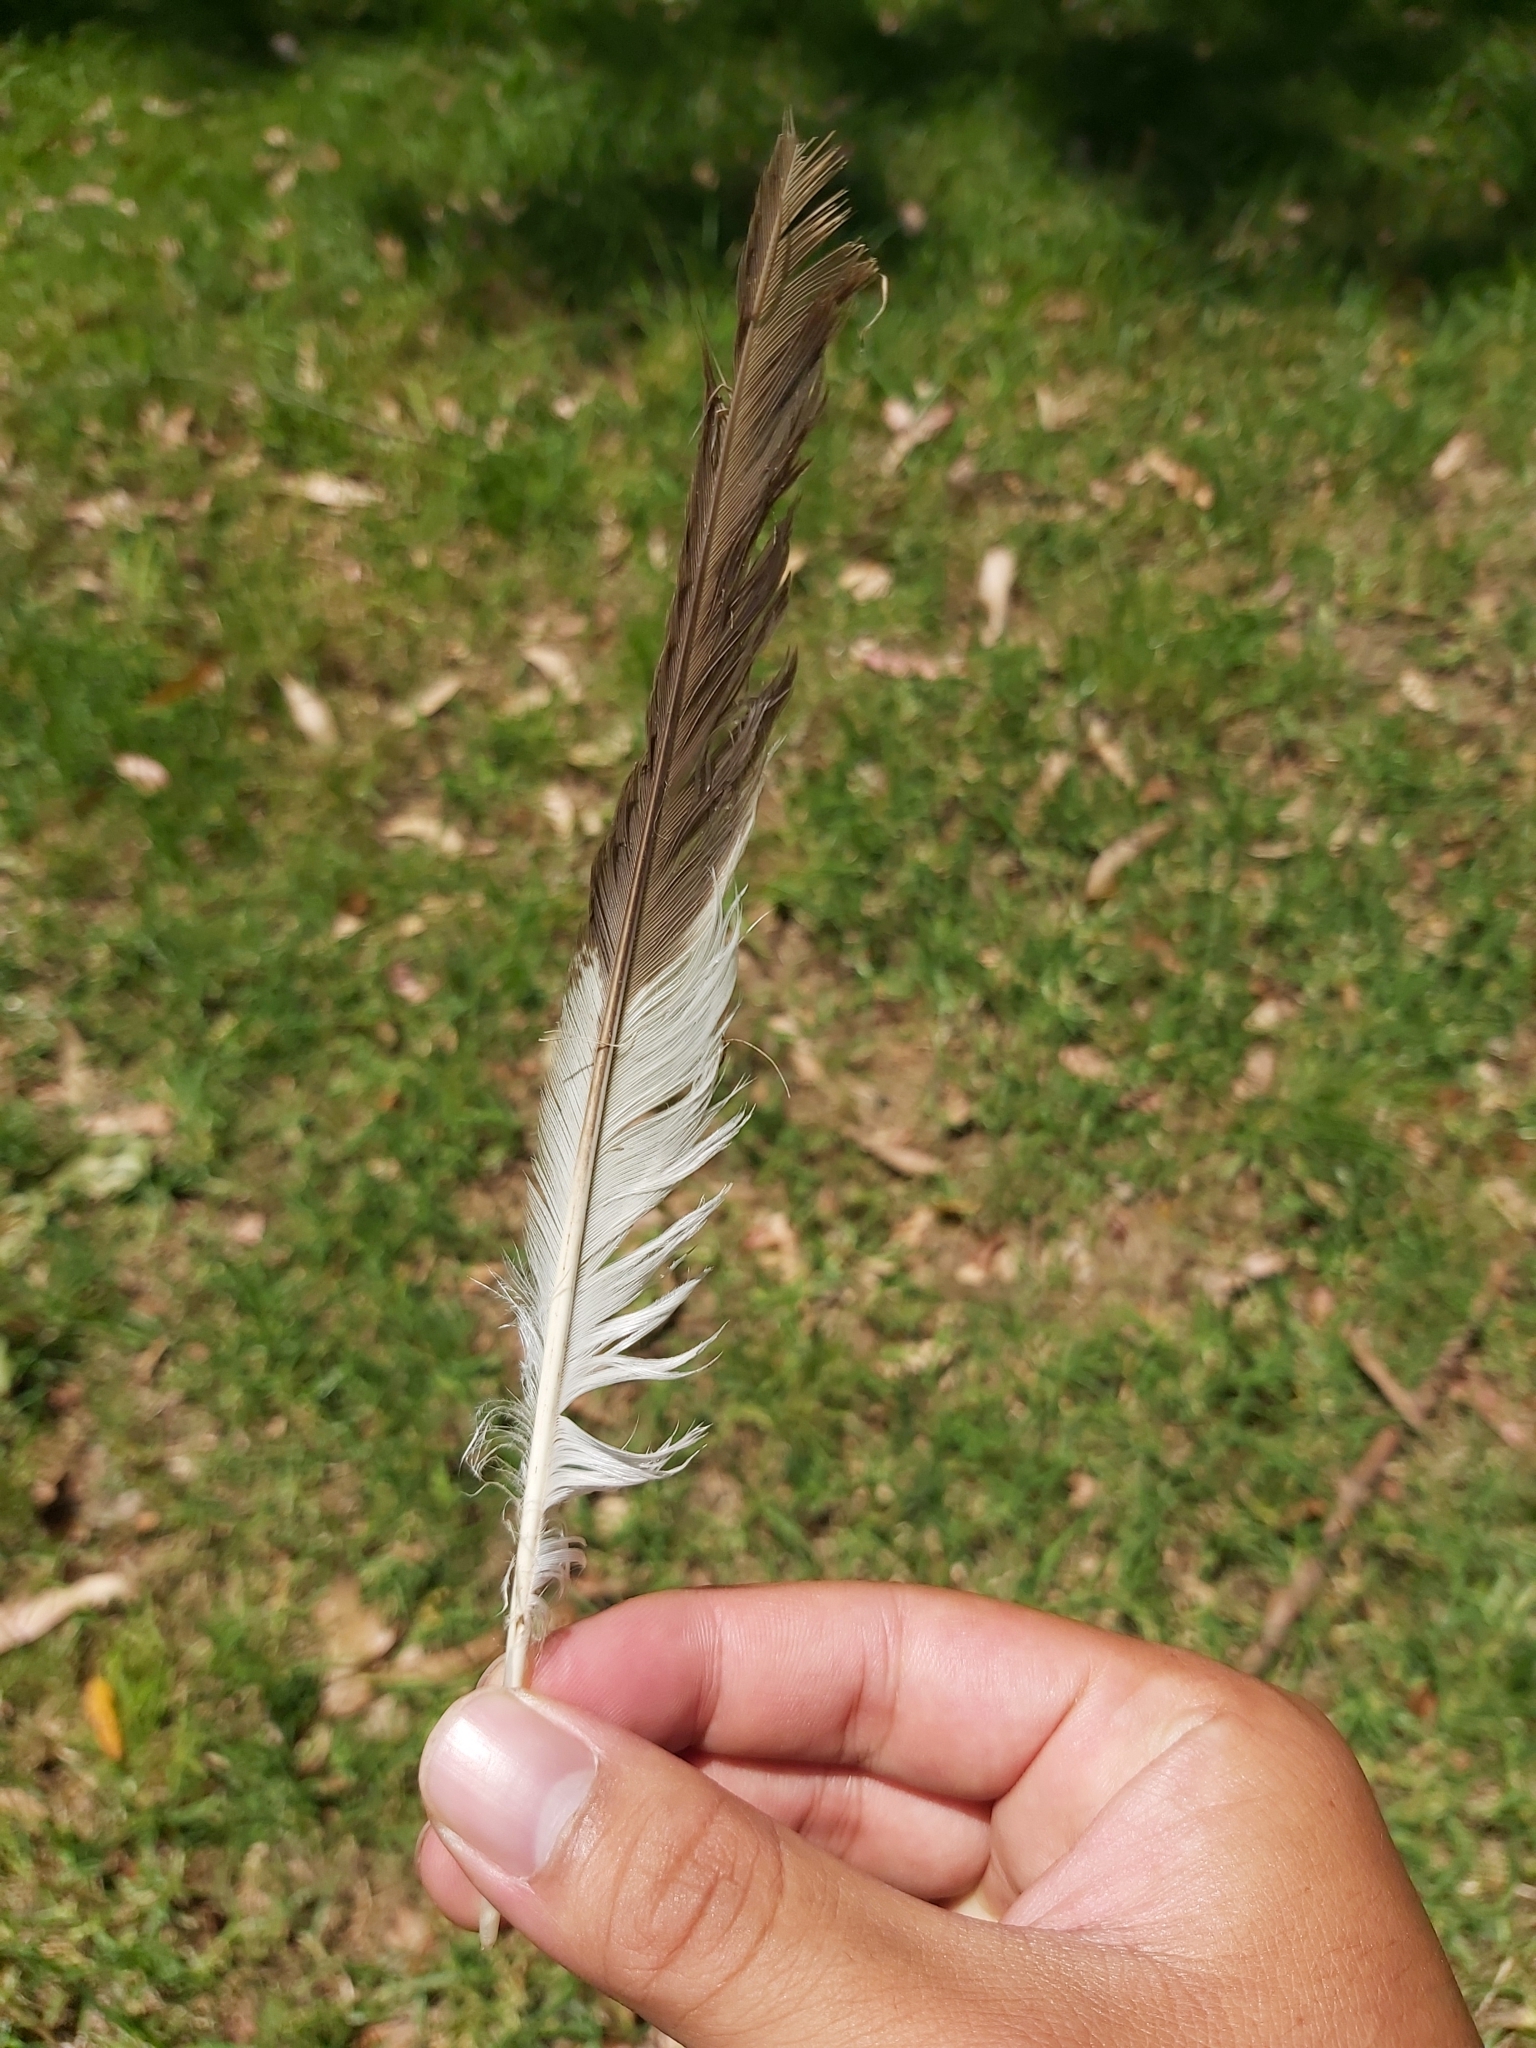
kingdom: Animalia
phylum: Chordata
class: Aves
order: Coraciiformes
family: Alcedinidae
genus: Dacelo
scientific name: Dacelo novaeguineae
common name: Laughing kookaburra
